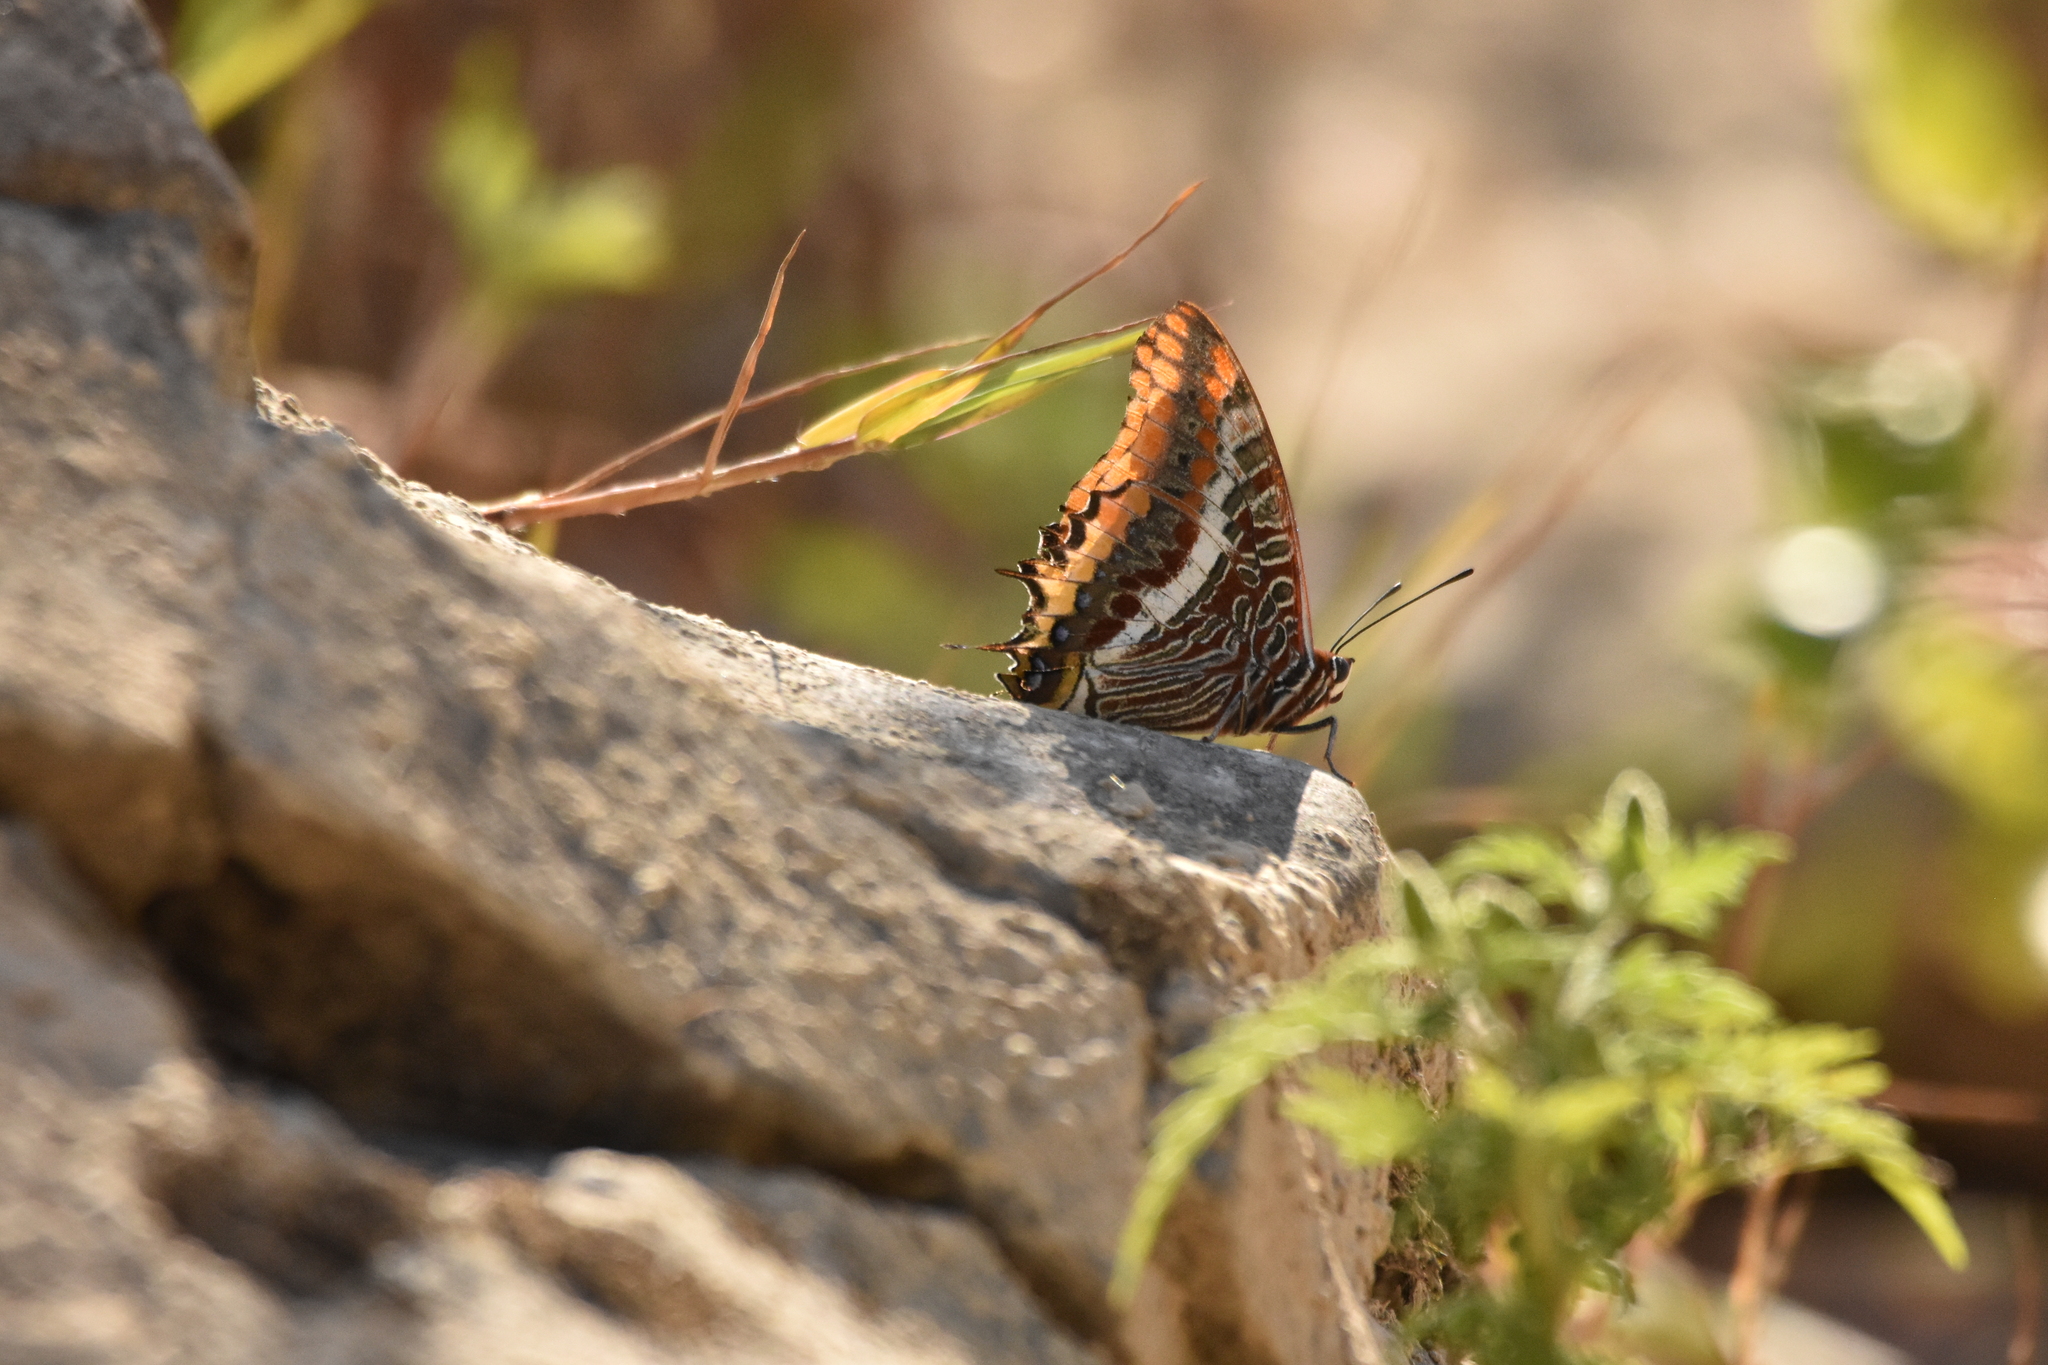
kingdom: Animalia
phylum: Arthropoda
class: Insecta
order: Lepidoptera
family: Nymphalidae
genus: Charaxes
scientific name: Charaxes jasius
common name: Two tailed pasha
